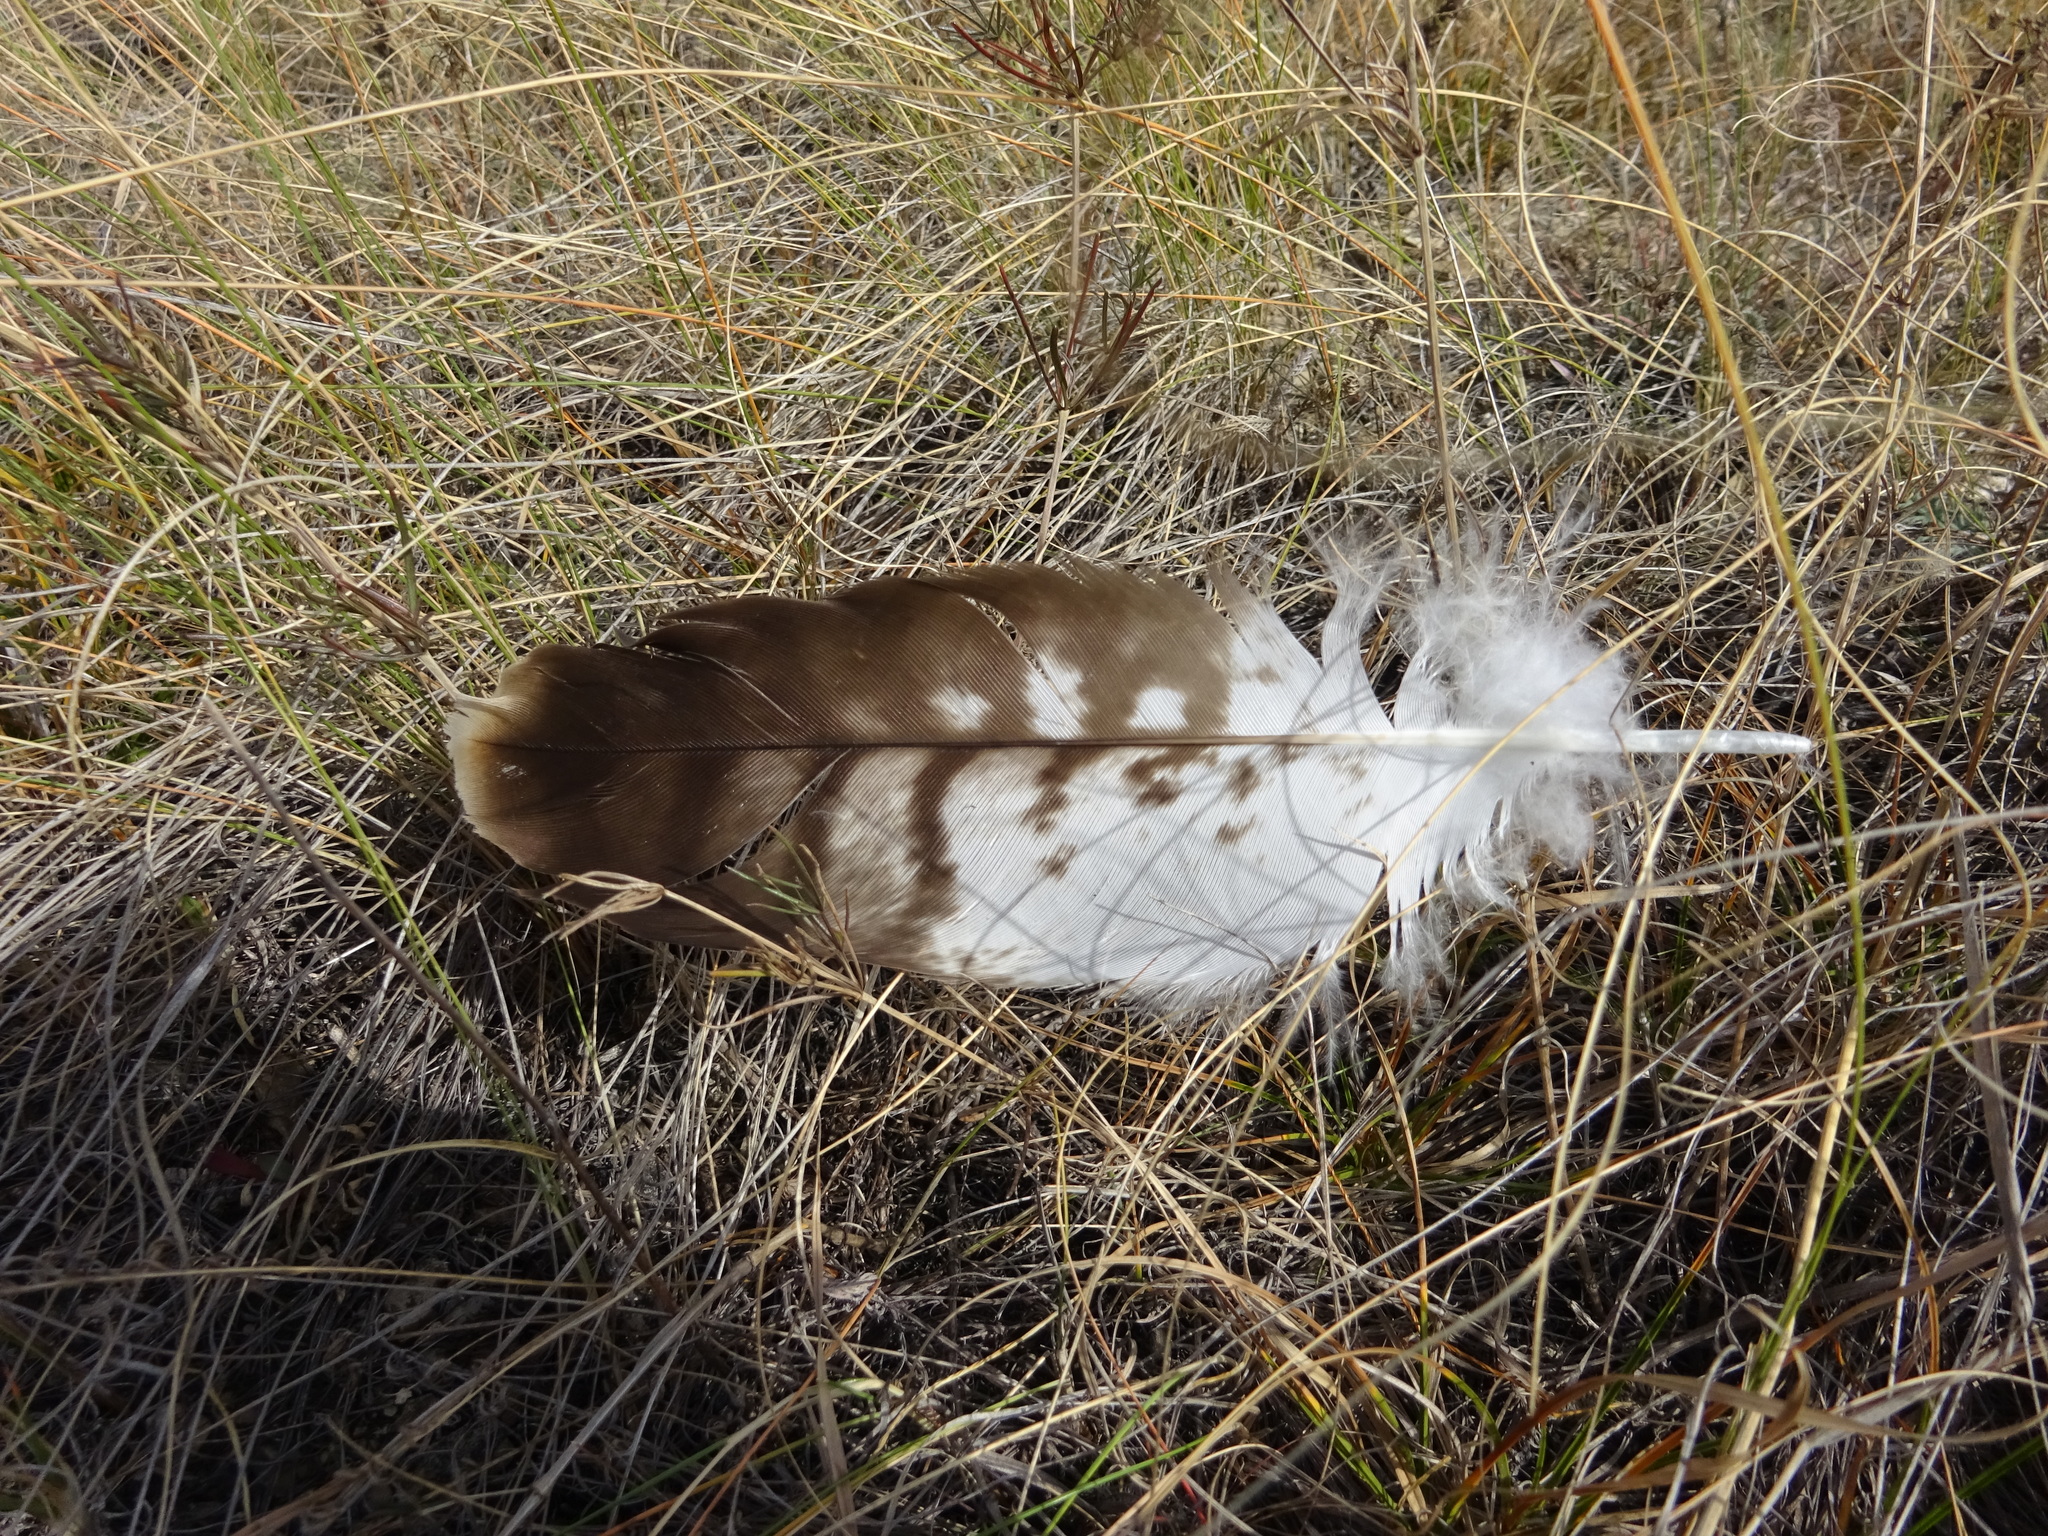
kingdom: Animalia
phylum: Chordata
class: Aves
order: Accipitriformes
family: Accipitridae
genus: Milvus
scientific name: Milvus migrans
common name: Black kite
